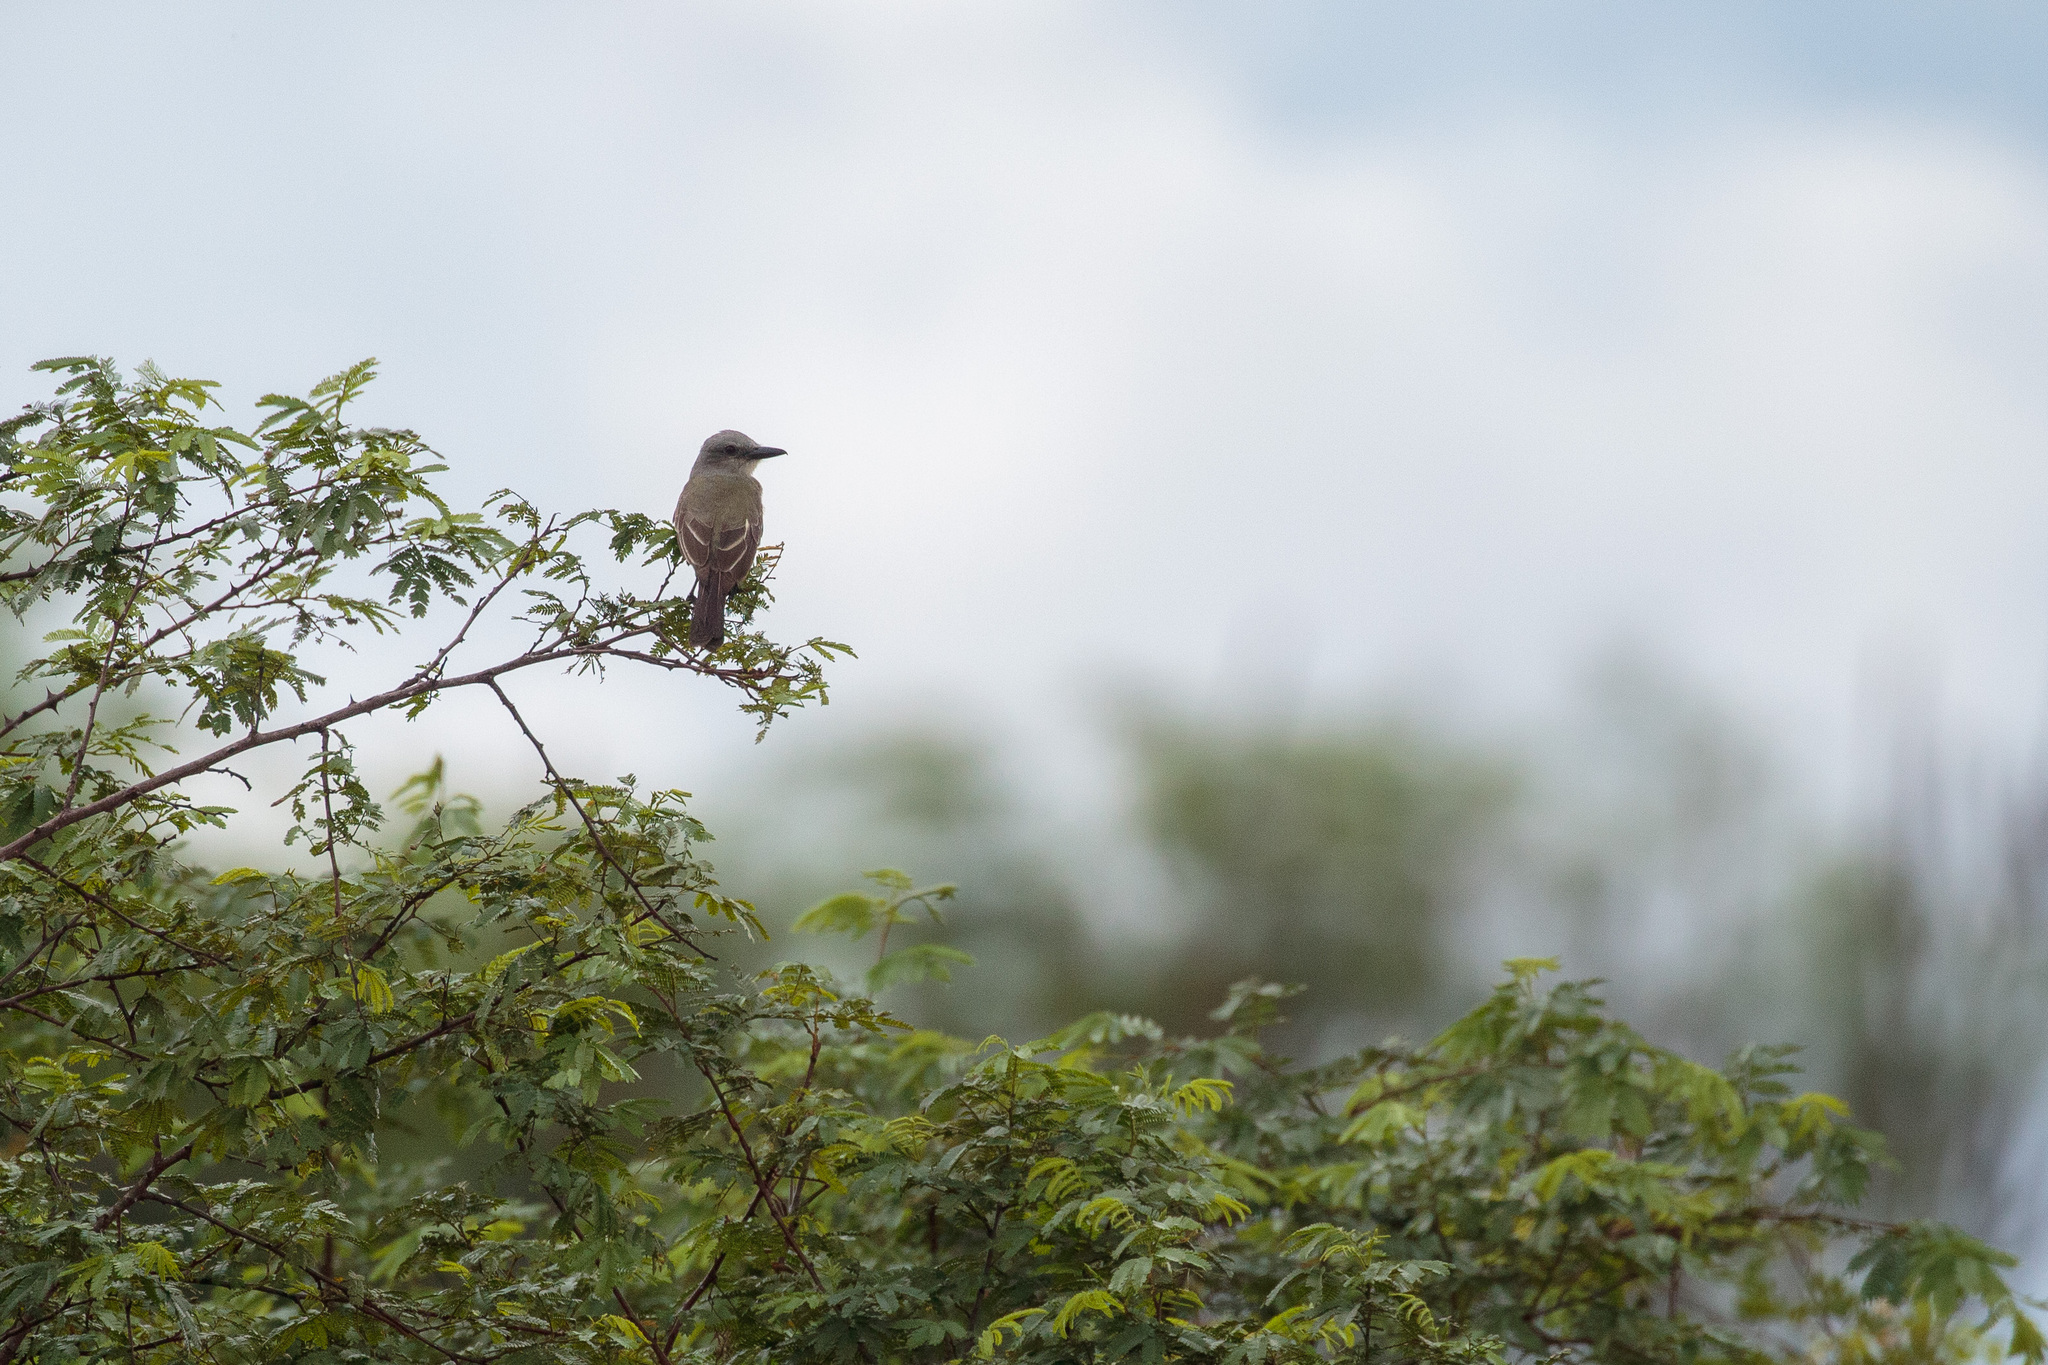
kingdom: Animalia
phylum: Chordata
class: Aves
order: Passeriformes
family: Tyrannidae
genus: Tyrannus
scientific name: Tyrannus melancholicus
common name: Tropical kingbird
